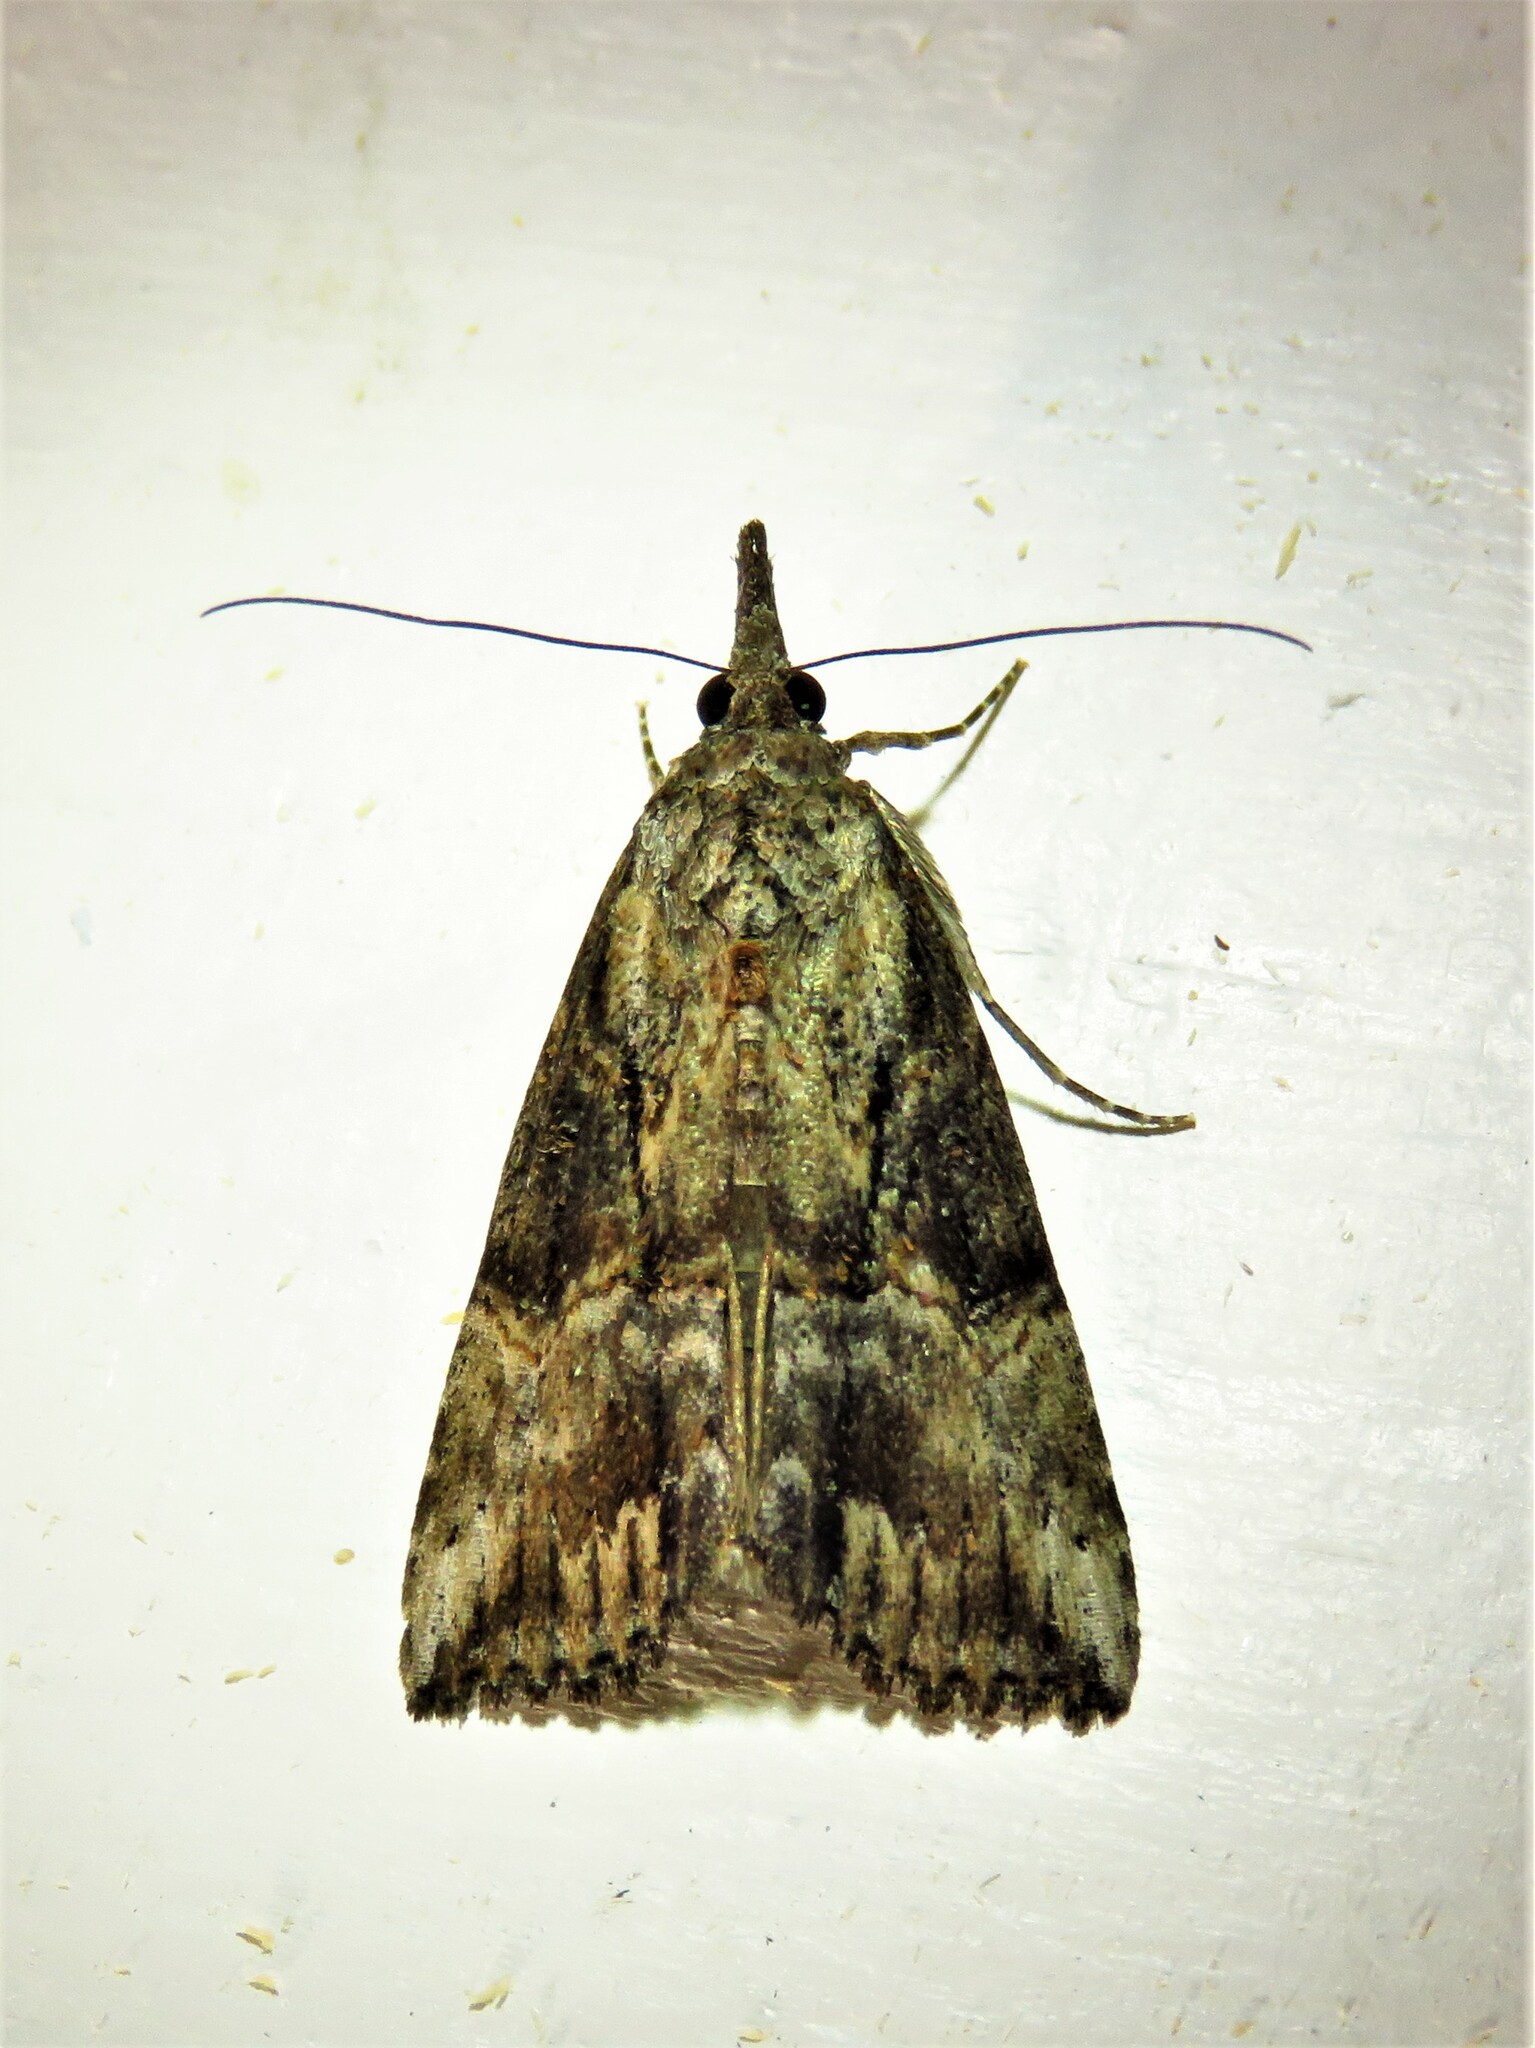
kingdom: Animalia
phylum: Arthropoda
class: Insecta
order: Lepidoptera
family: Erebidae
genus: Hypena
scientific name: Hypena scabra
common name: Green cloverworm
